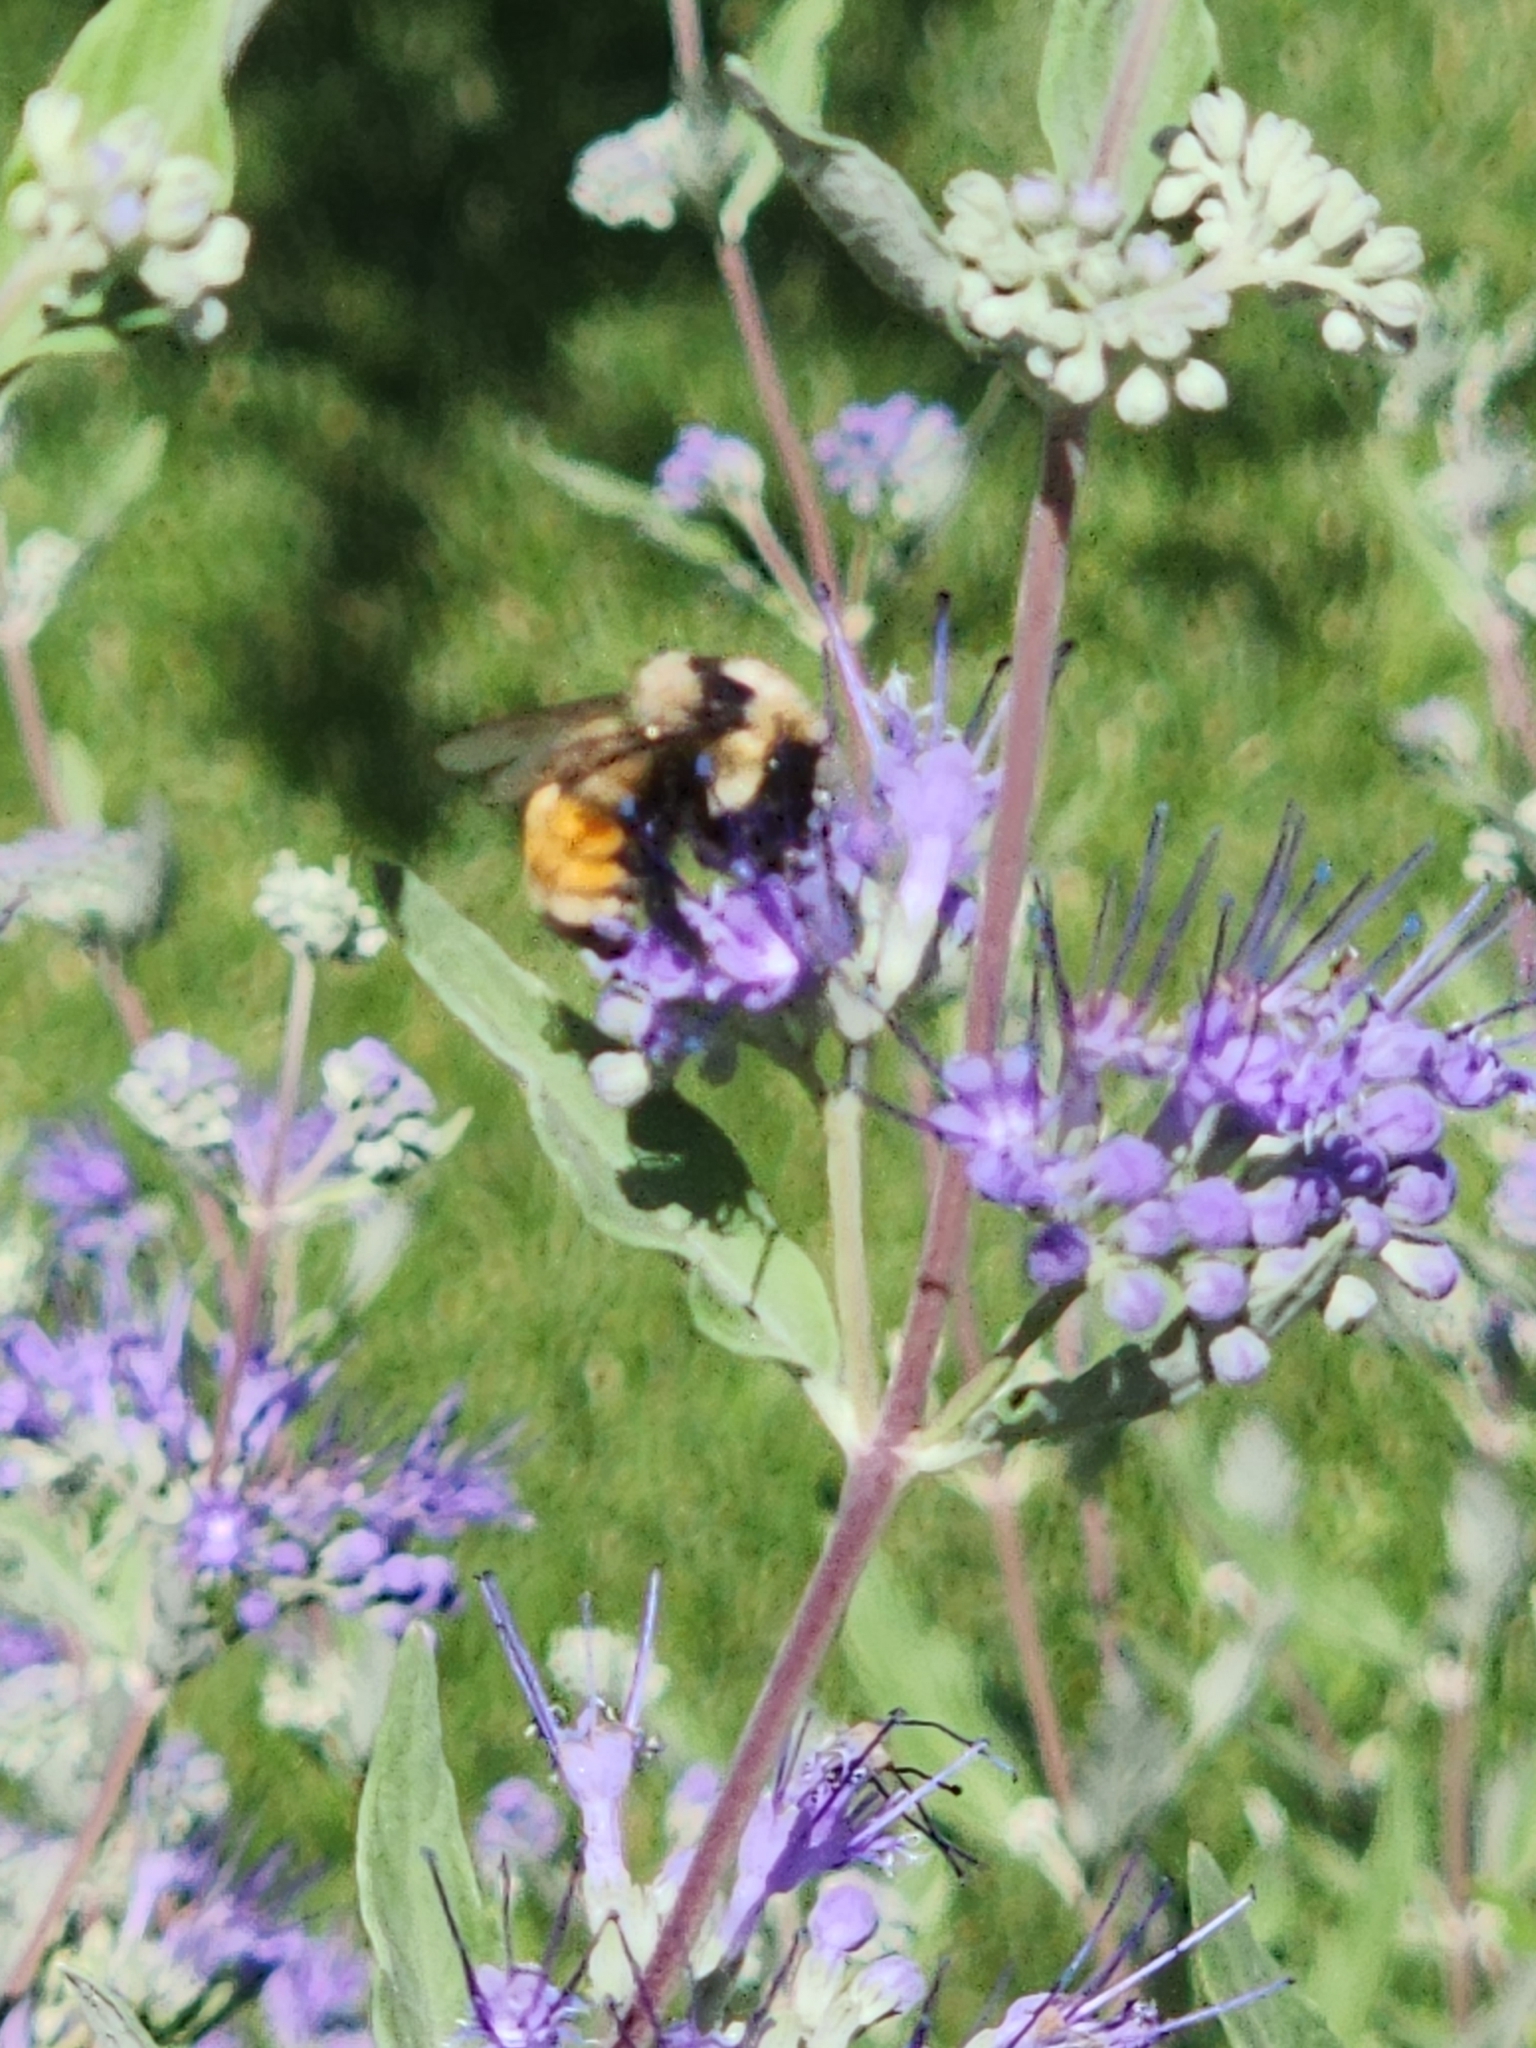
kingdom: Animalia
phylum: Arthropoda
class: Insecta
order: Hymenoptera
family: Apidae
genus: Bombus
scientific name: Bombus huntii
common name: Hunt bumble bee
